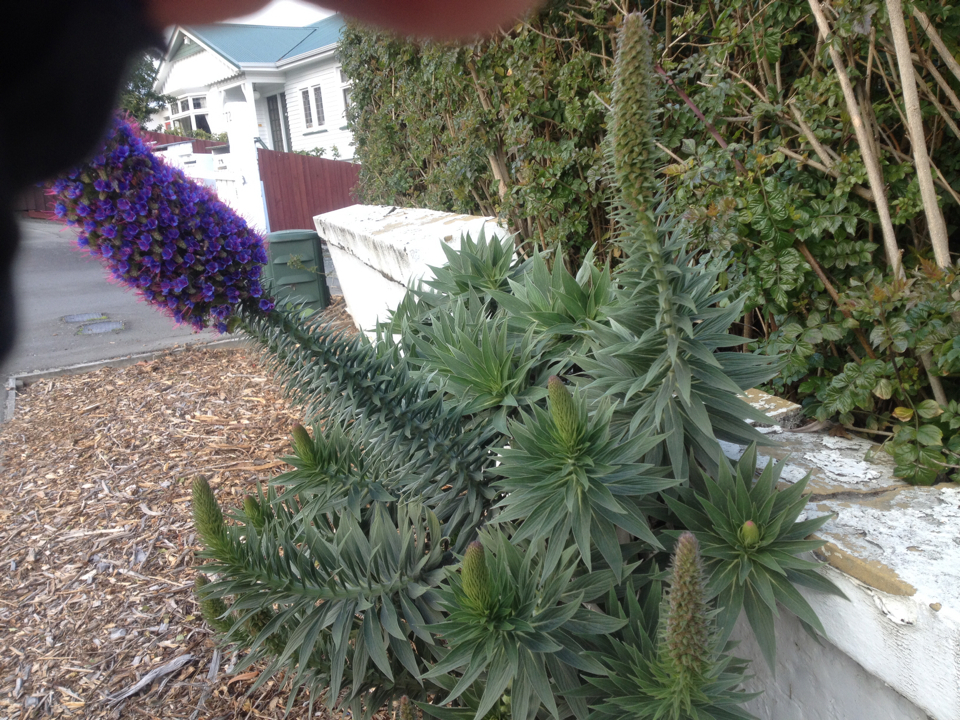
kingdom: Plantae
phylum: Tracheophyta
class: Magnoliopsida
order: Boraginales
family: Boraginaceae
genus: Echium
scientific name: Echium candicans
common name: Pride of madeira
